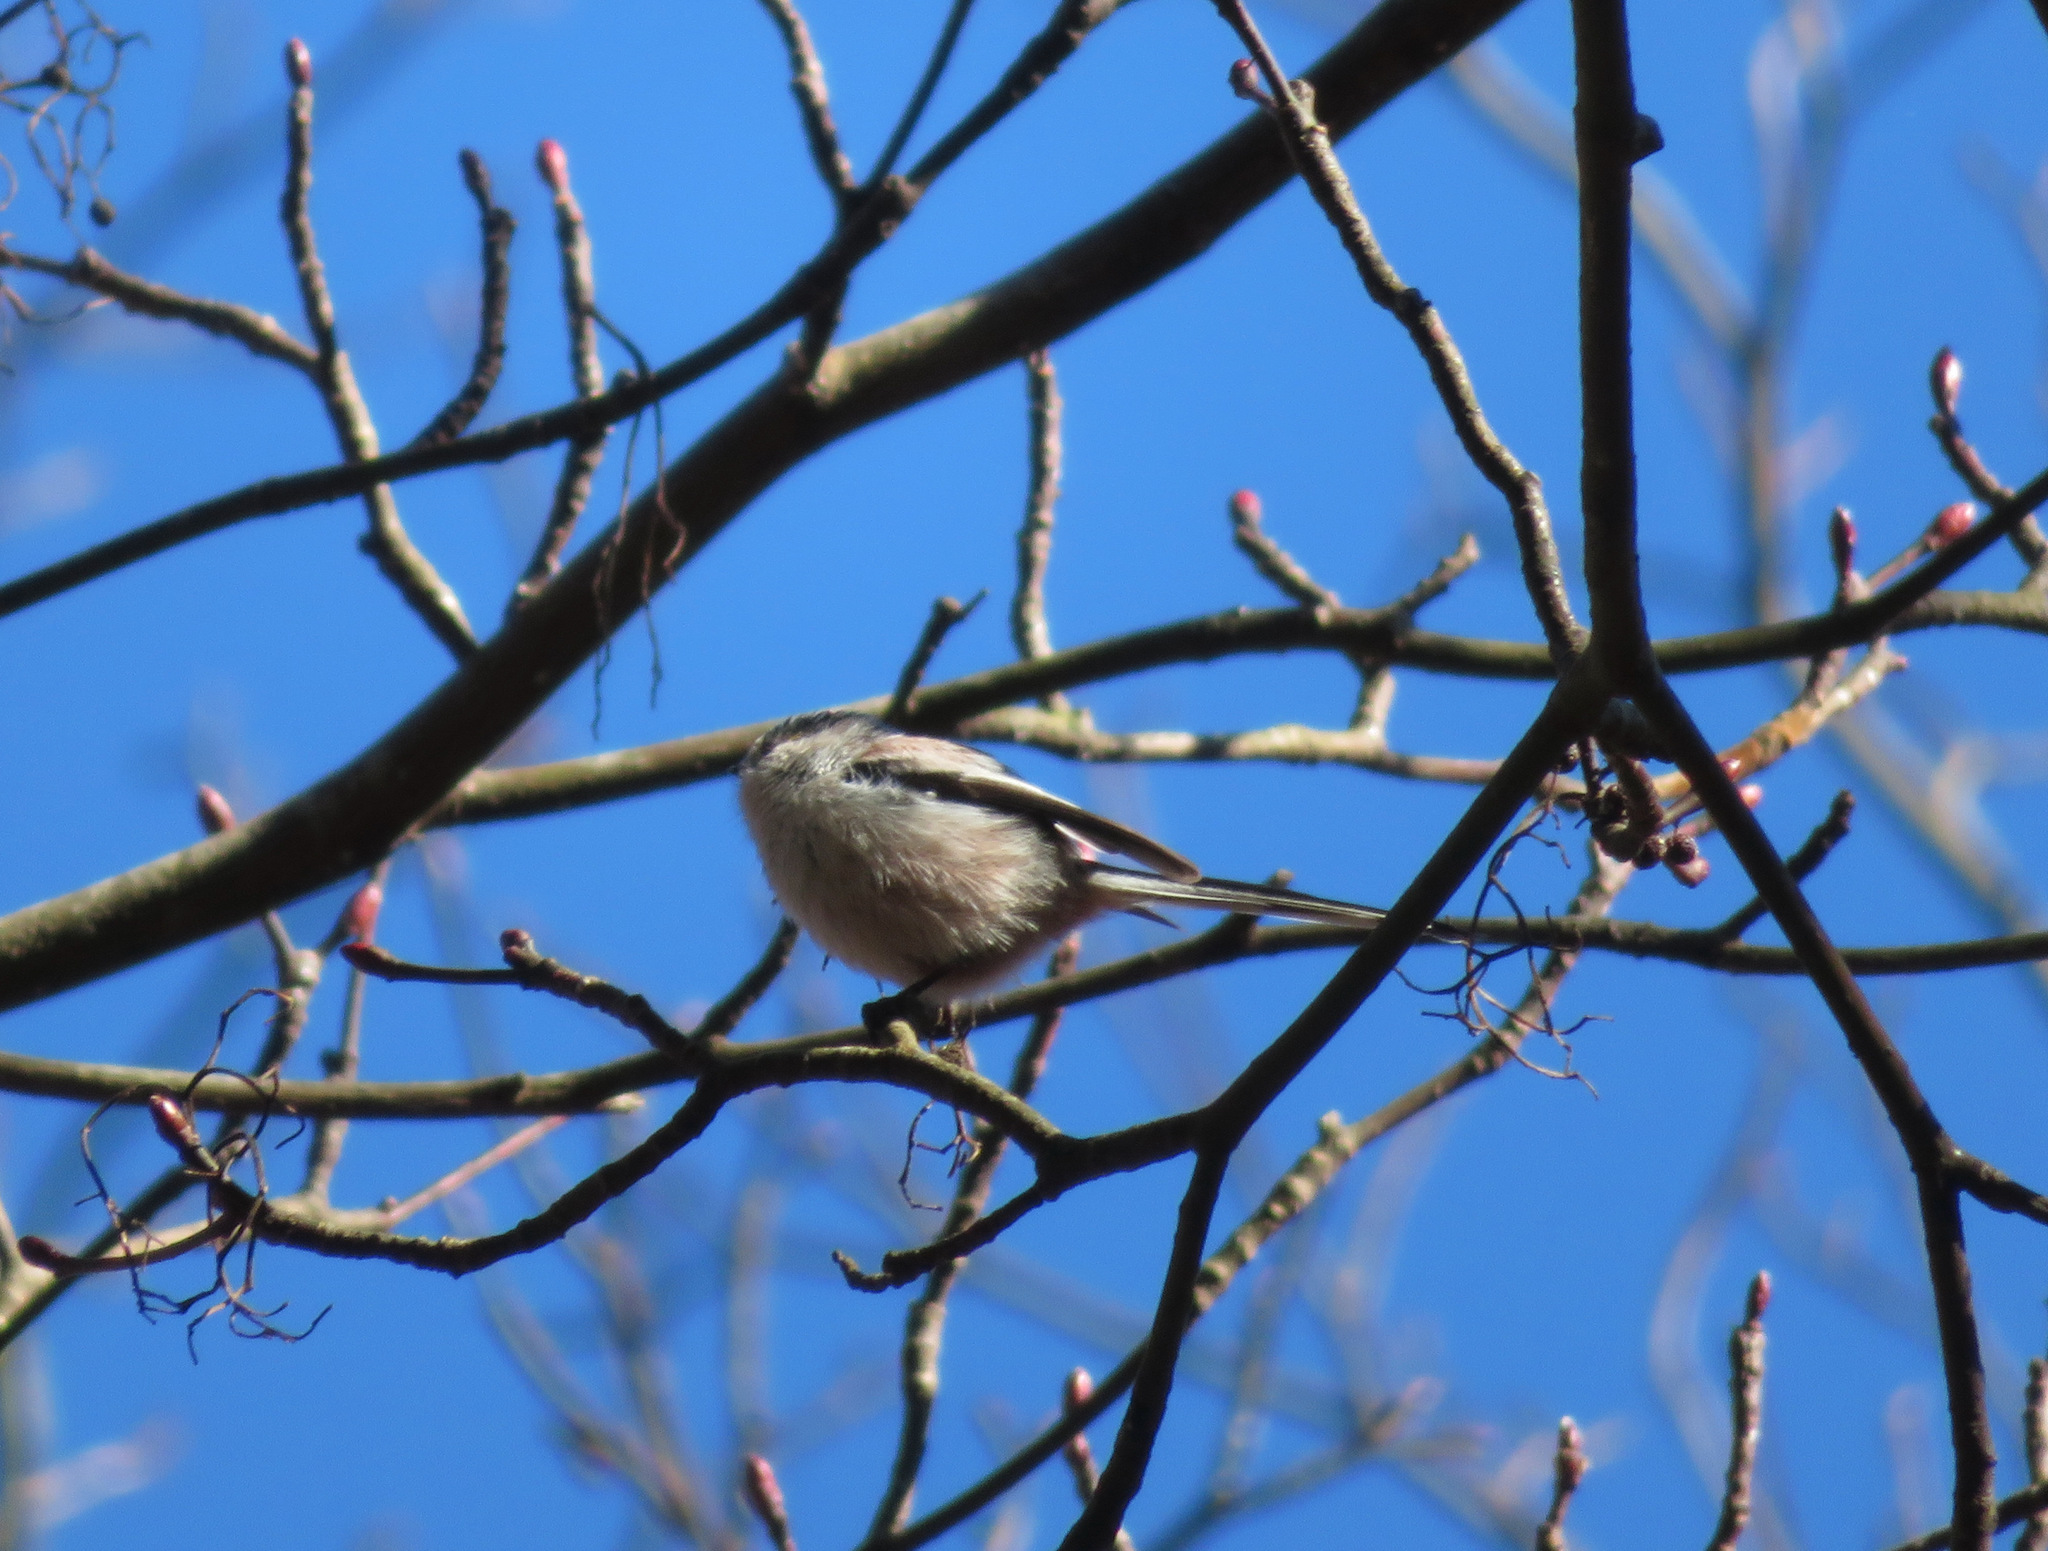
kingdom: Animalia
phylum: Chordata
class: Aves
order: Passeriformes
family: Aegithalidae
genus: Aegithalos
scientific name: Aegithalos caudatus
